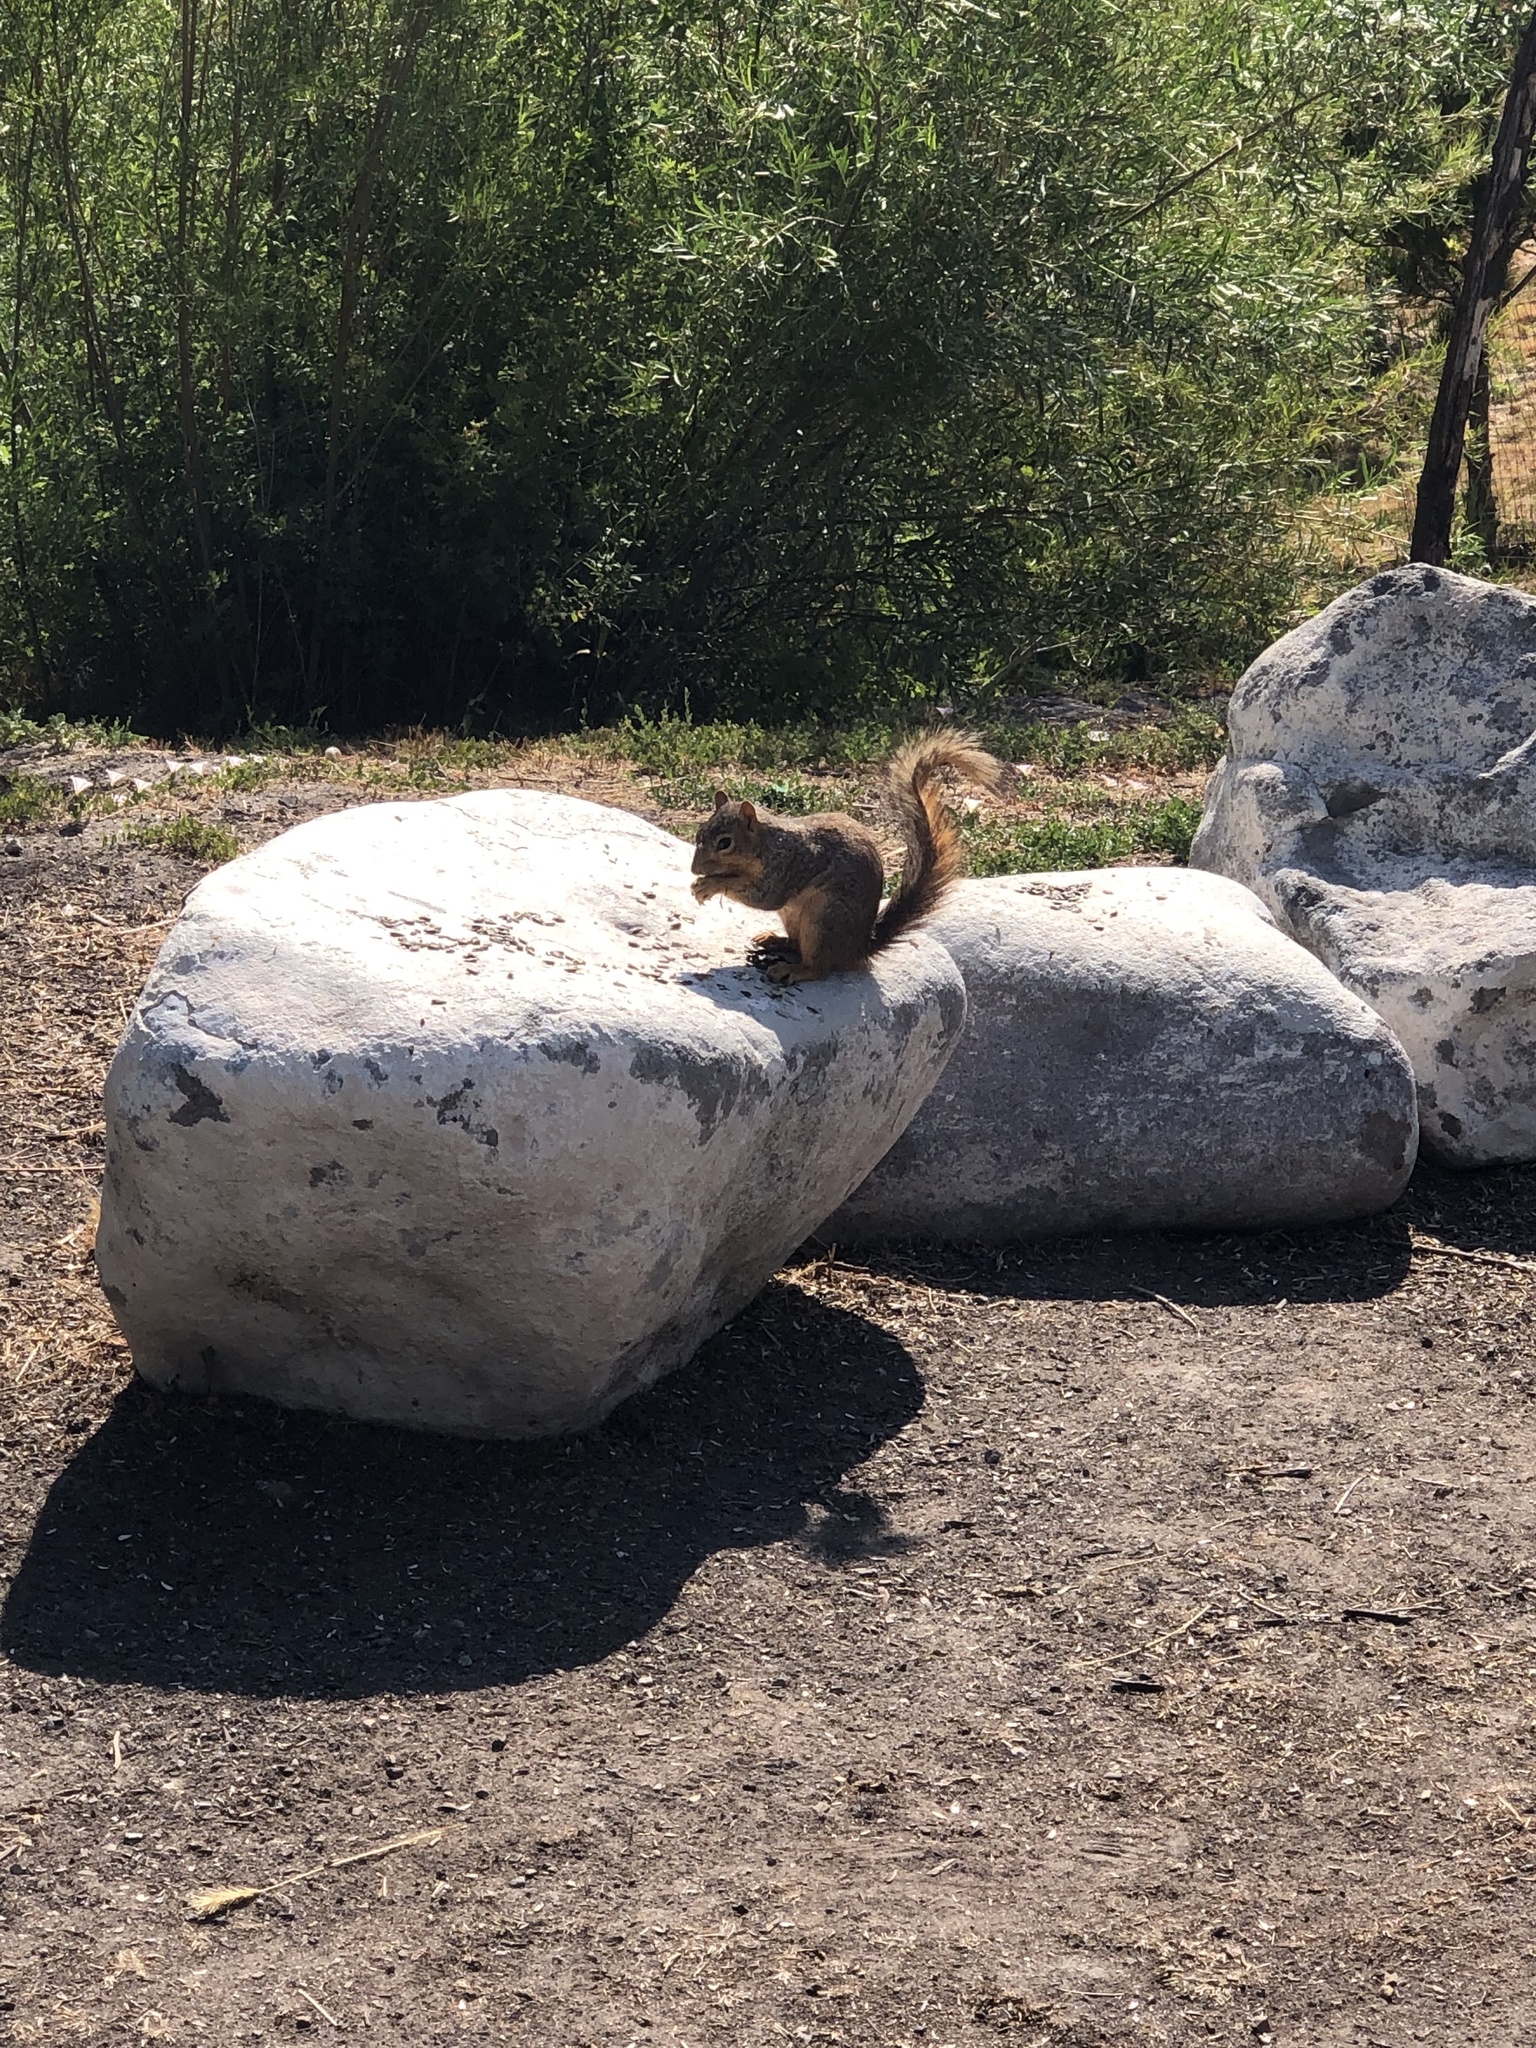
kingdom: Animalia
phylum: Chordata
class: Mammalia
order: Rodentia
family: Sciuridae
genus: Sciurus
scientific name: Sciurus niger
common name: Fox squirrel
